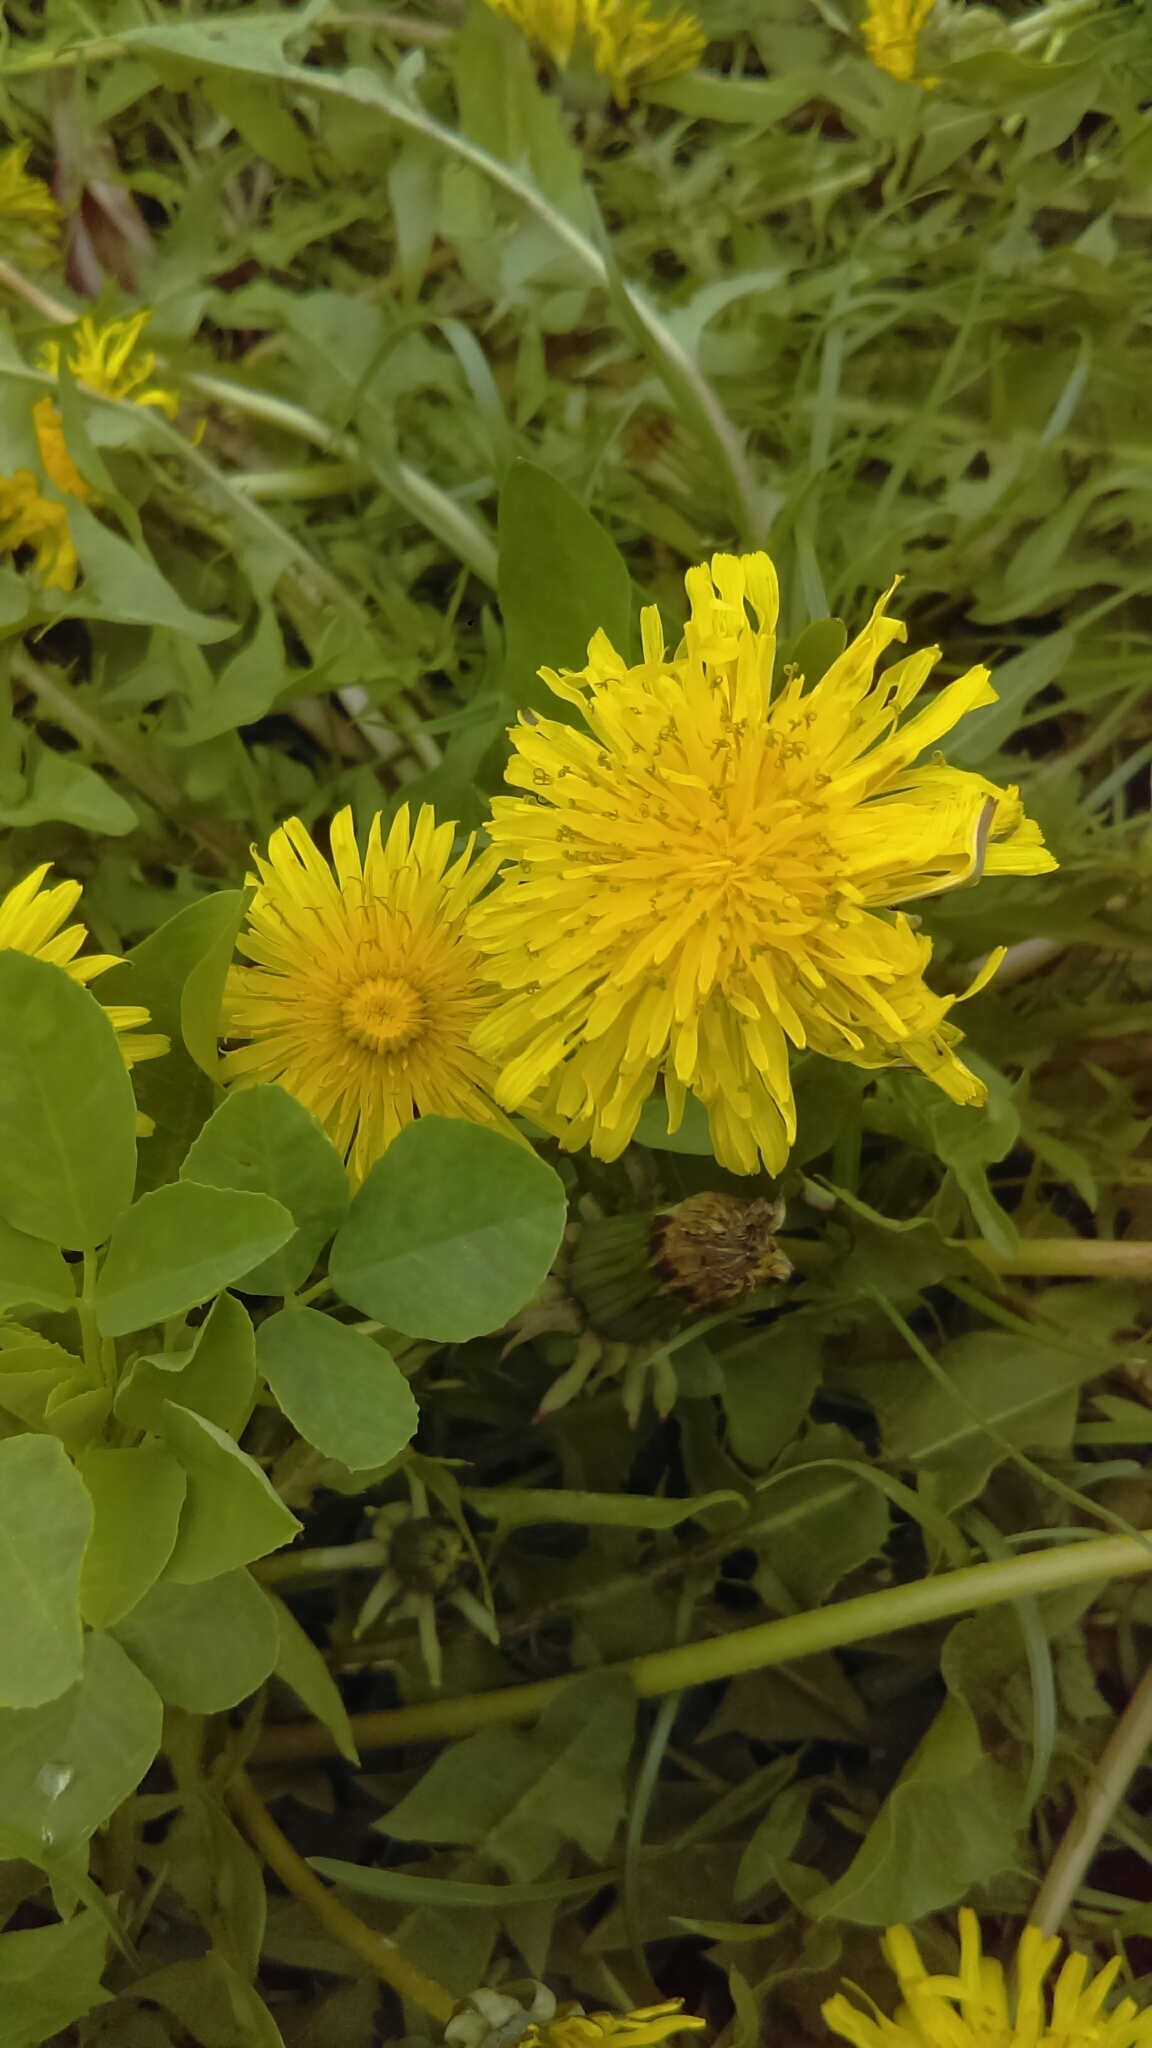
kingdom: Plantae
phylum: Tracheophyta
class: Magnoliopsida
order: Asterales
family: Asteraceae
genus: Taraxacum
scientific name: Taraxacum
